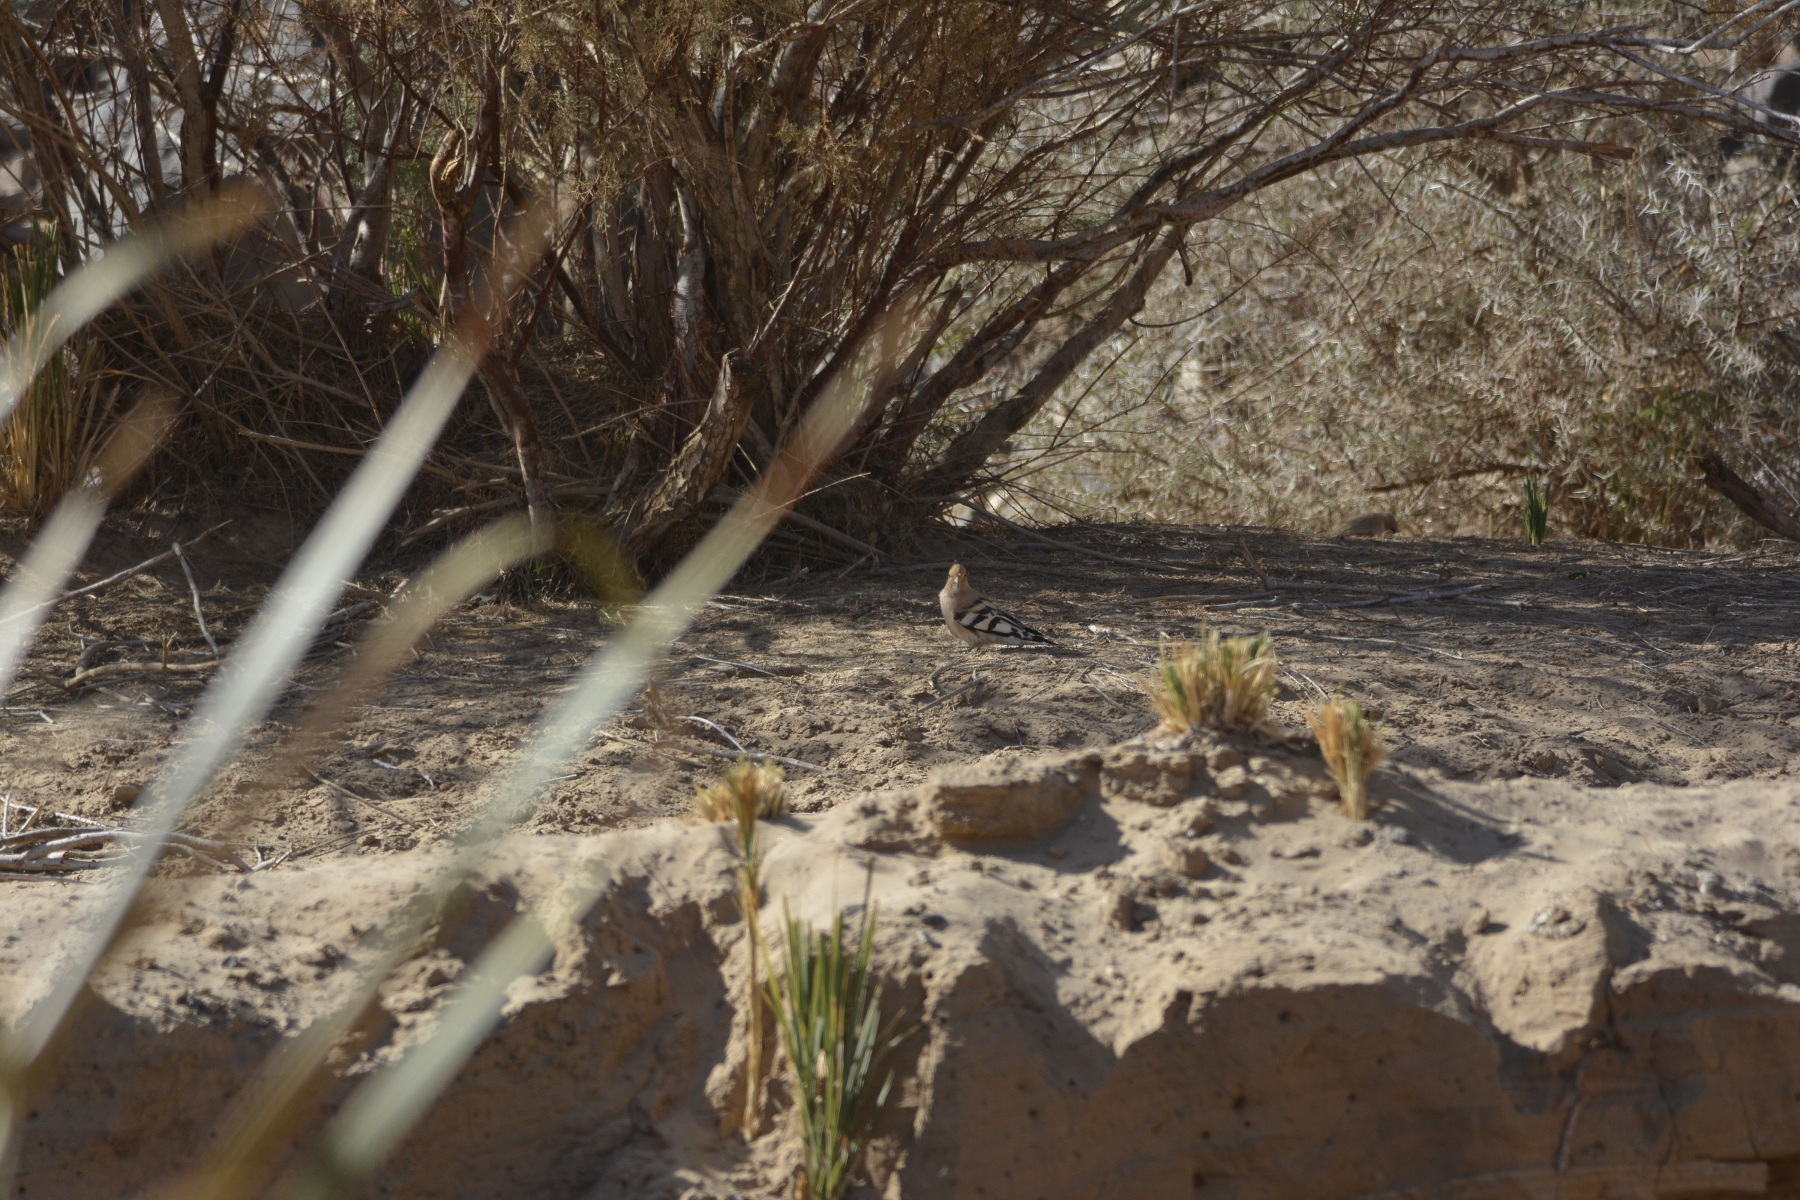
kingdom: Animalia
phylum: Chordata
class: Aves
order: Bucerotiformes
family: Upupidae
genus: Upupa
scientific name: Upupa epops
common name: Eurasian hoopoe
